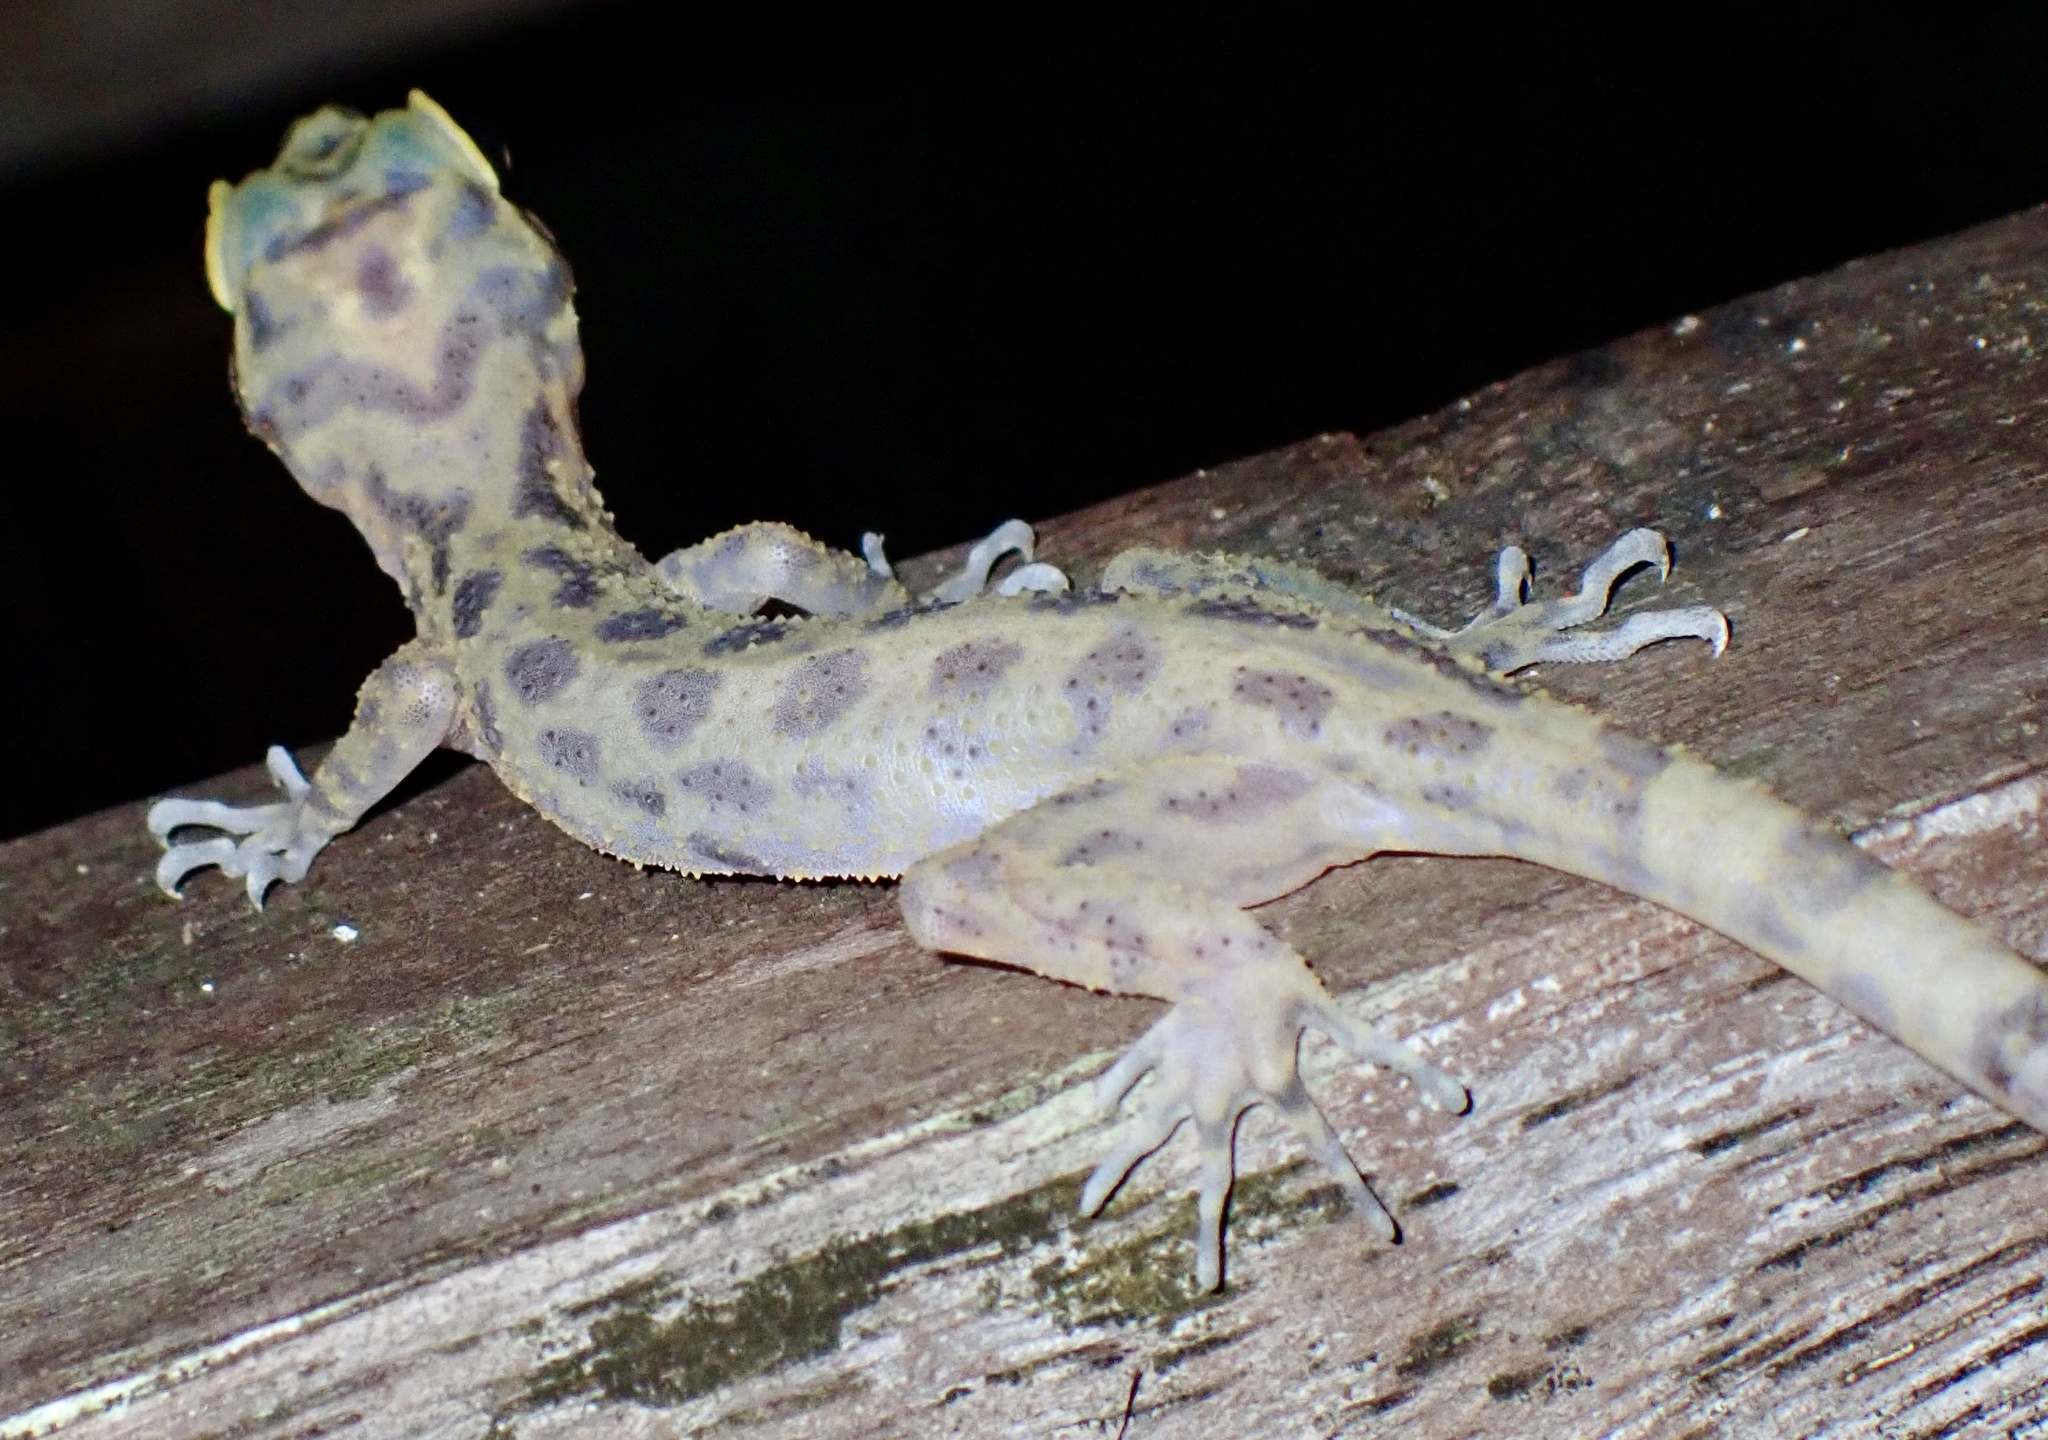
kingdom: Animalia
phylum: Chordata
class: Squamata
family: Gekkonidae
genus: Cyrtodactylus
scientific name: Cyrtodactylus papuensis
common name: Papua bow-fingered gecko
